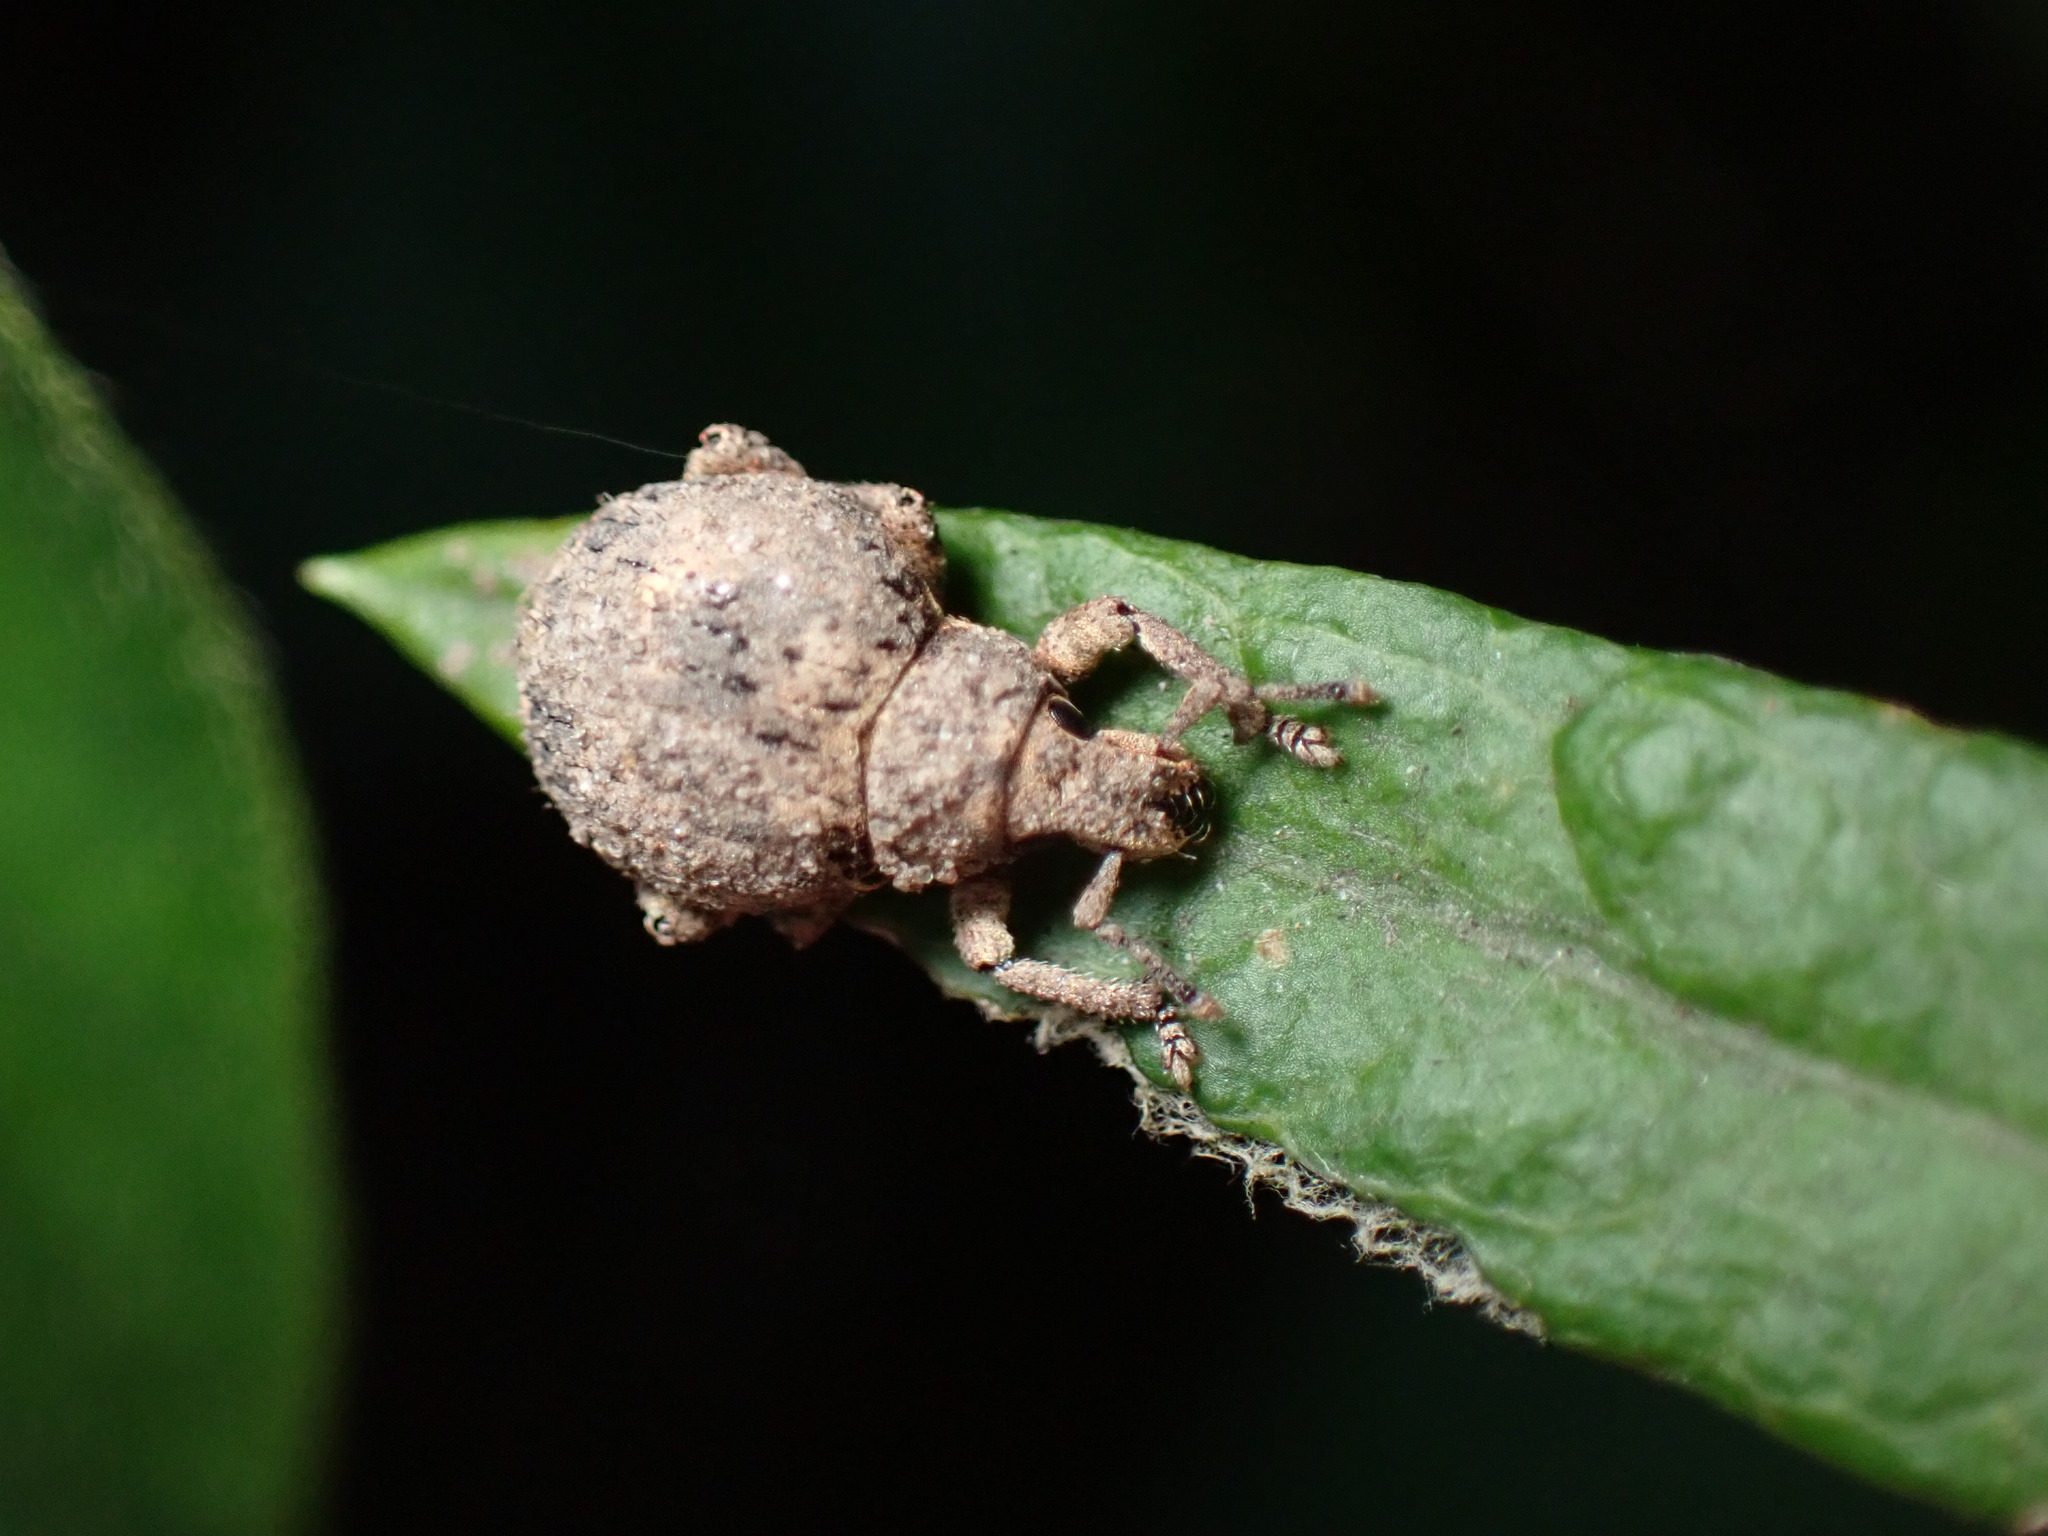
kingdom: Animalia
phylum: Arthropoda
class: Insecta
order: Coleoptera
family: Curculionidae
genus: Pseudocneorhinus
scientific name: Pseudocneorhinus bifasciatus
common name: Two-banded japanese weevil
